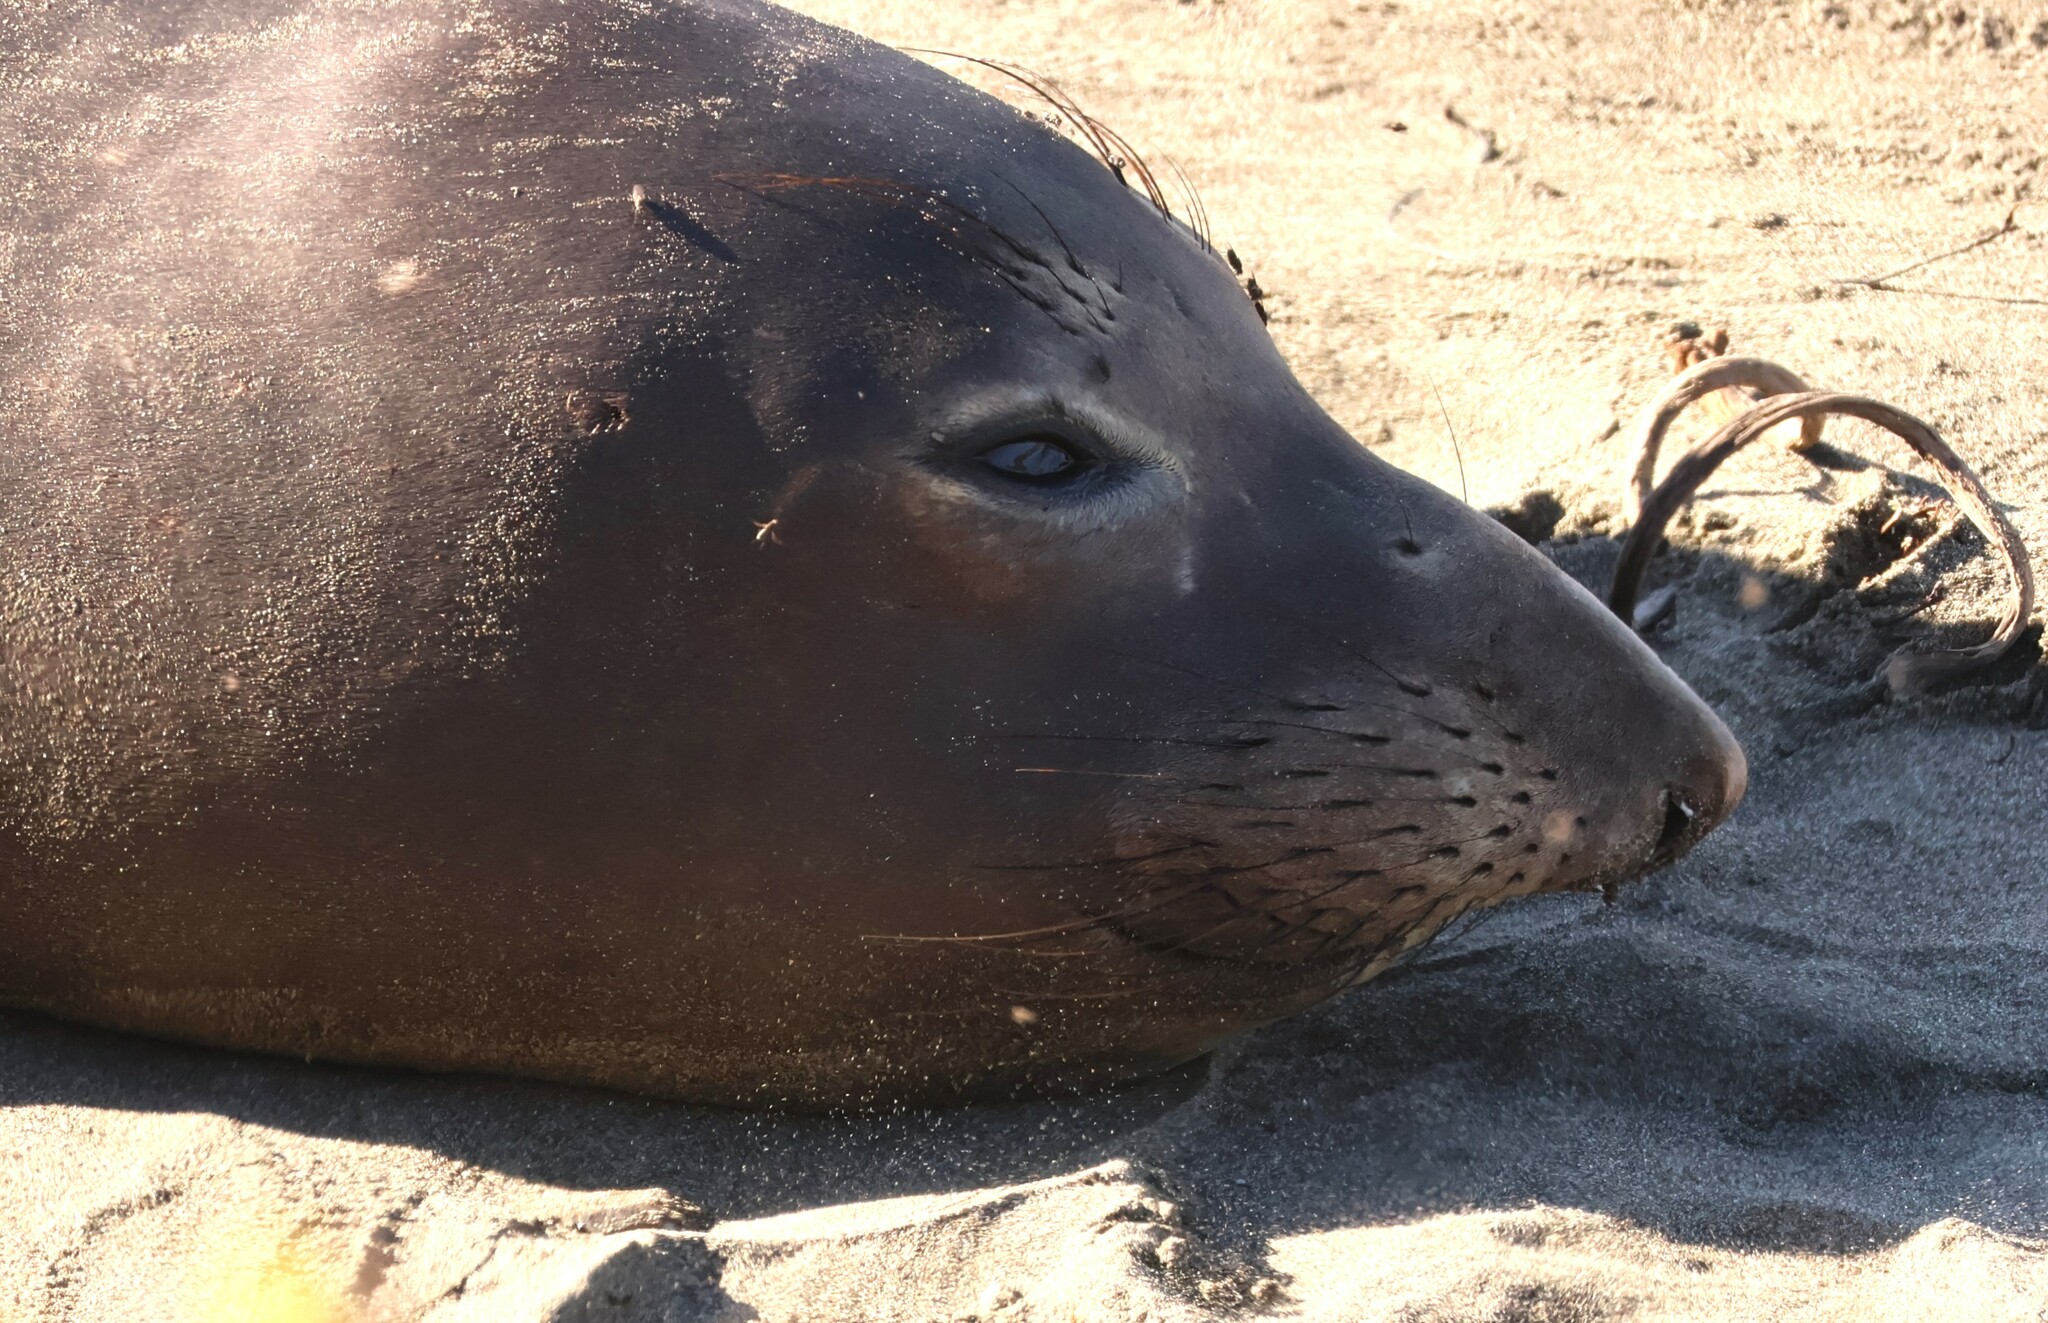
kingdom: Animalia
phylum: Chordata
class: Mammalia
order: Carnivora
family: Phocidae
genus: Mirounga
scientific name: Mirounga angustirostris
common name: Northern elephant seal
